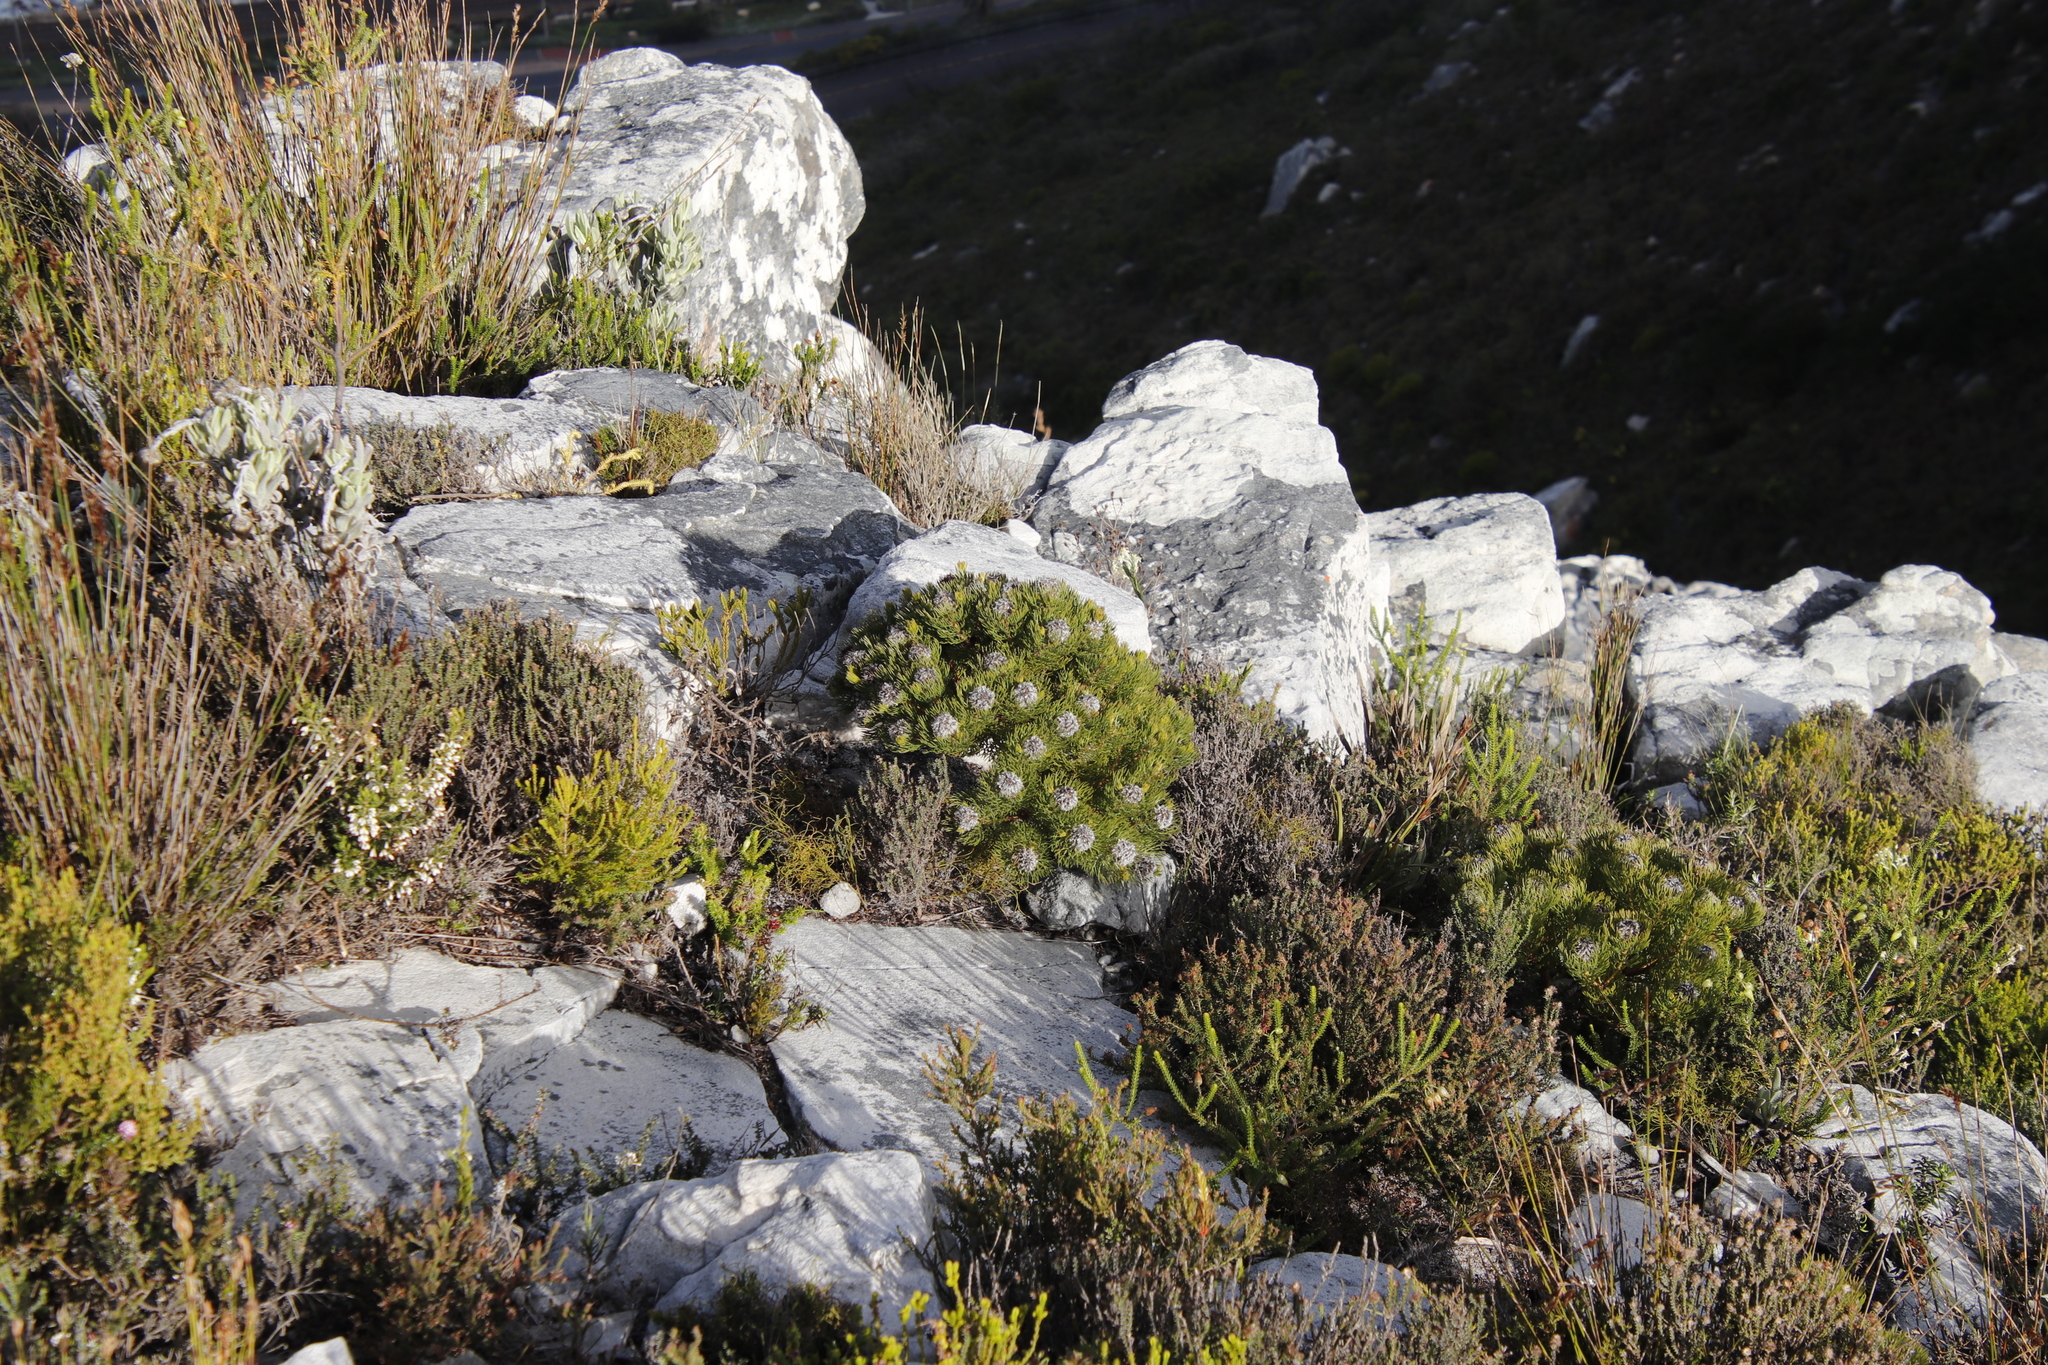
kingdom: Plantae
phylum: Tracheophyta
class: Magnoliopsida
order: Proteales
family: Proteaceae
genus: Serruria
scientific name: Serruria villosa
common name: Golden spiderhead
